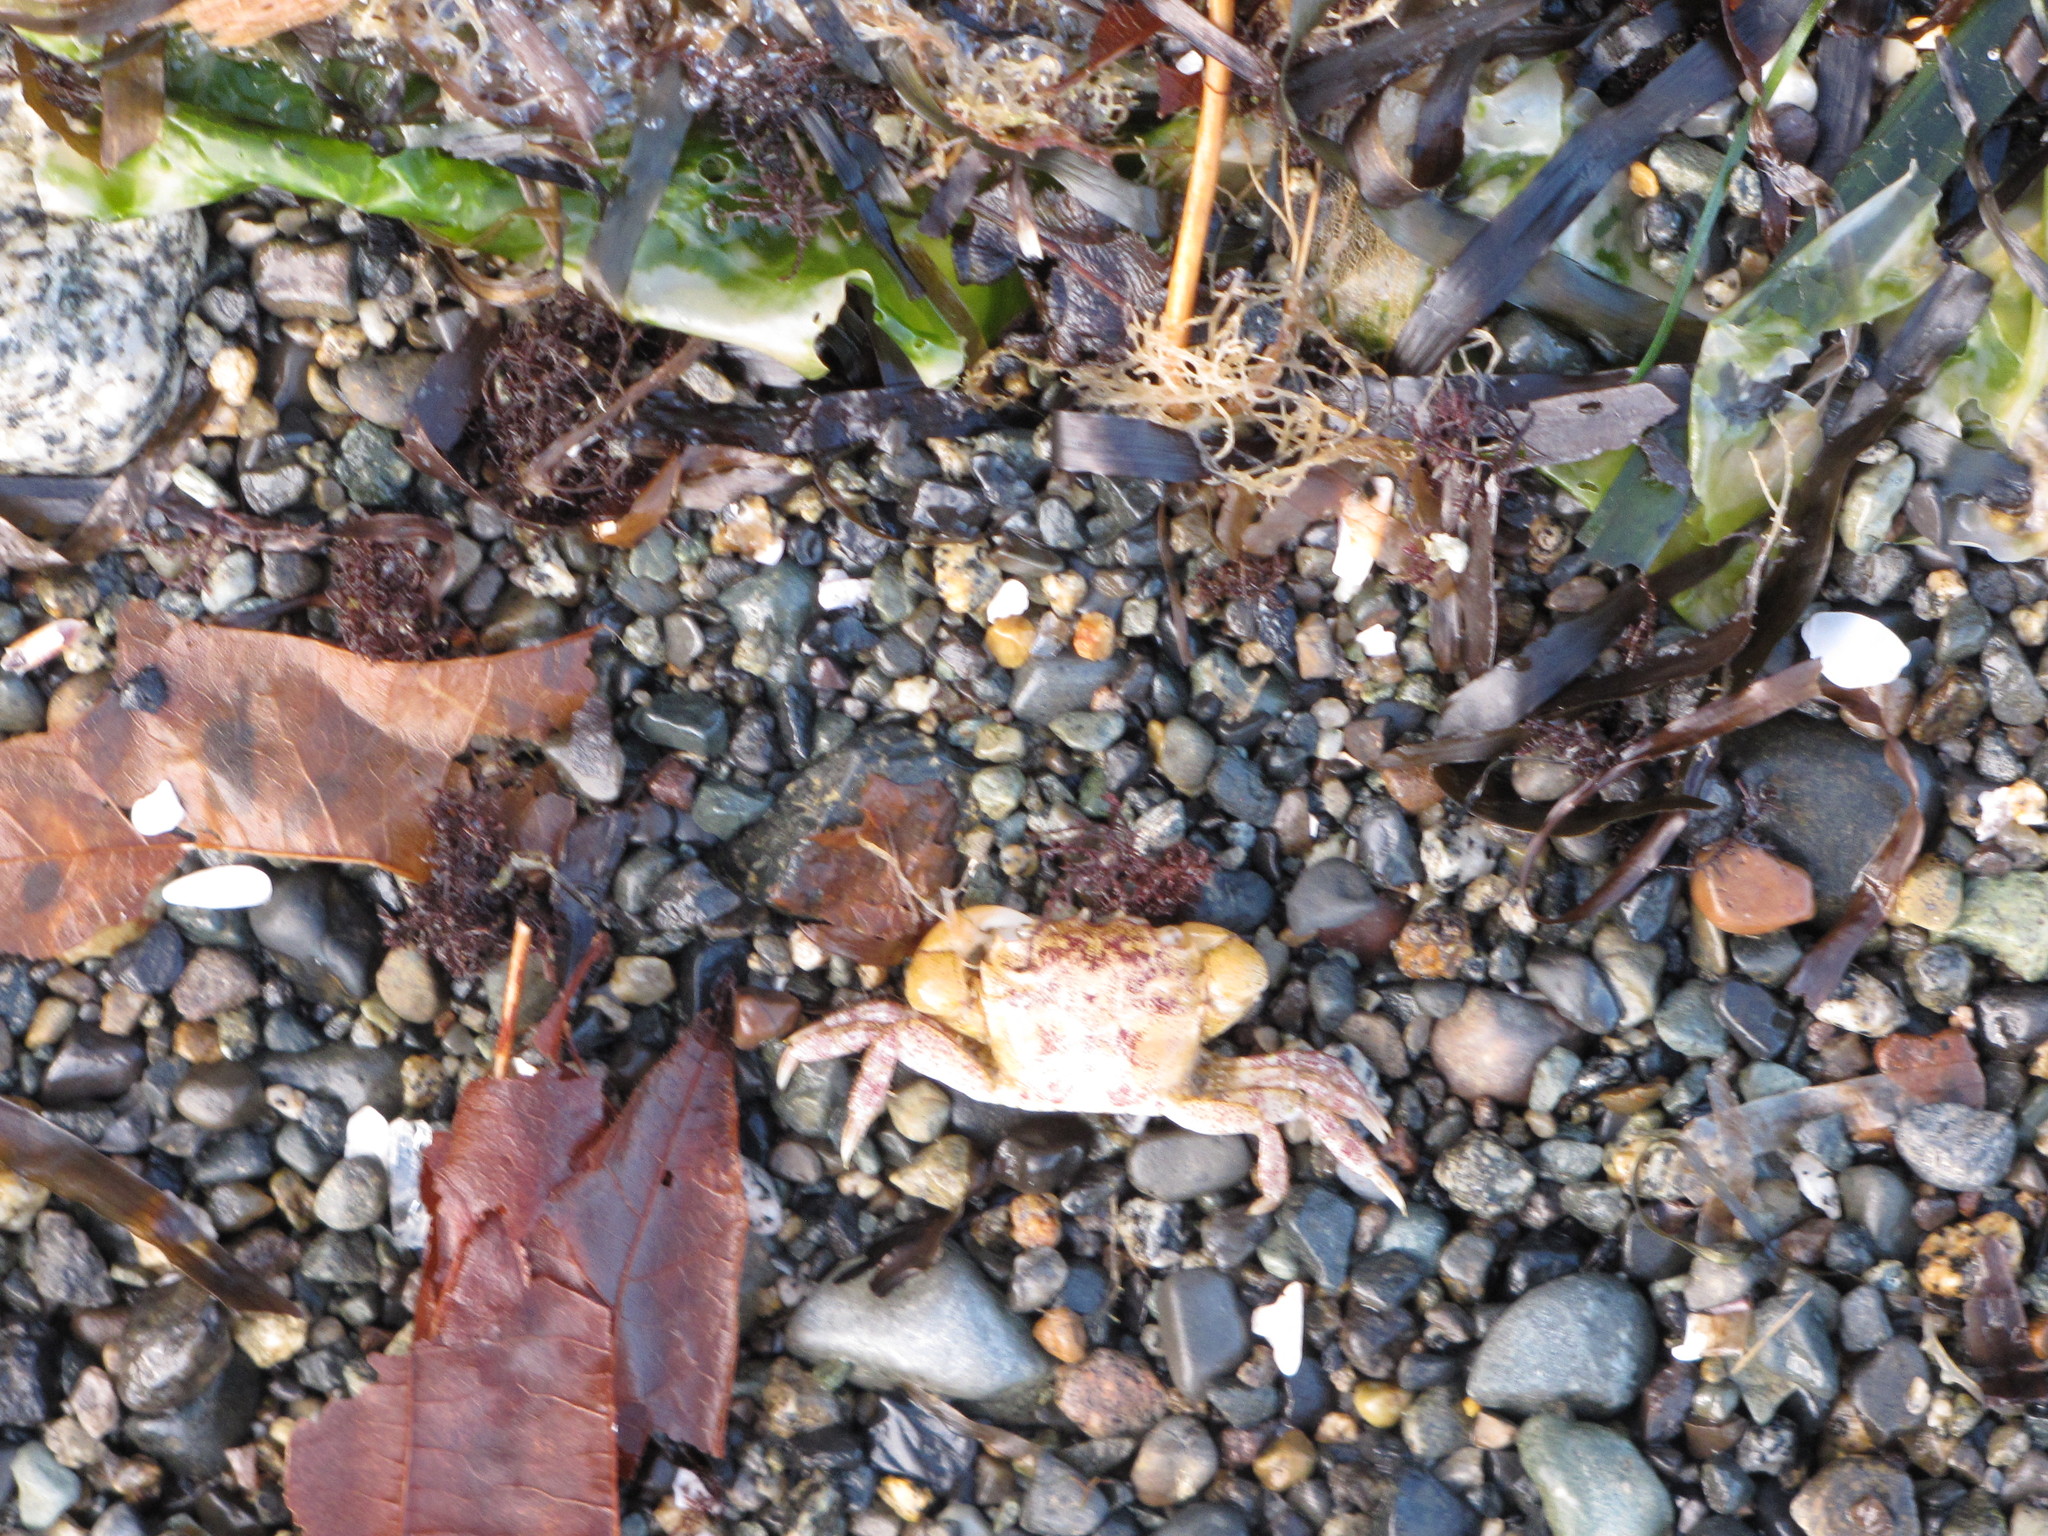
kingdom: Animalia
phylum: Arthropoda
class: Malacostraca
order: Decapoda
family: Varunidae
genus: Hemigrapsus
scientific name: Hemigrapsus oregonensis
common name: Yellow shore crab
